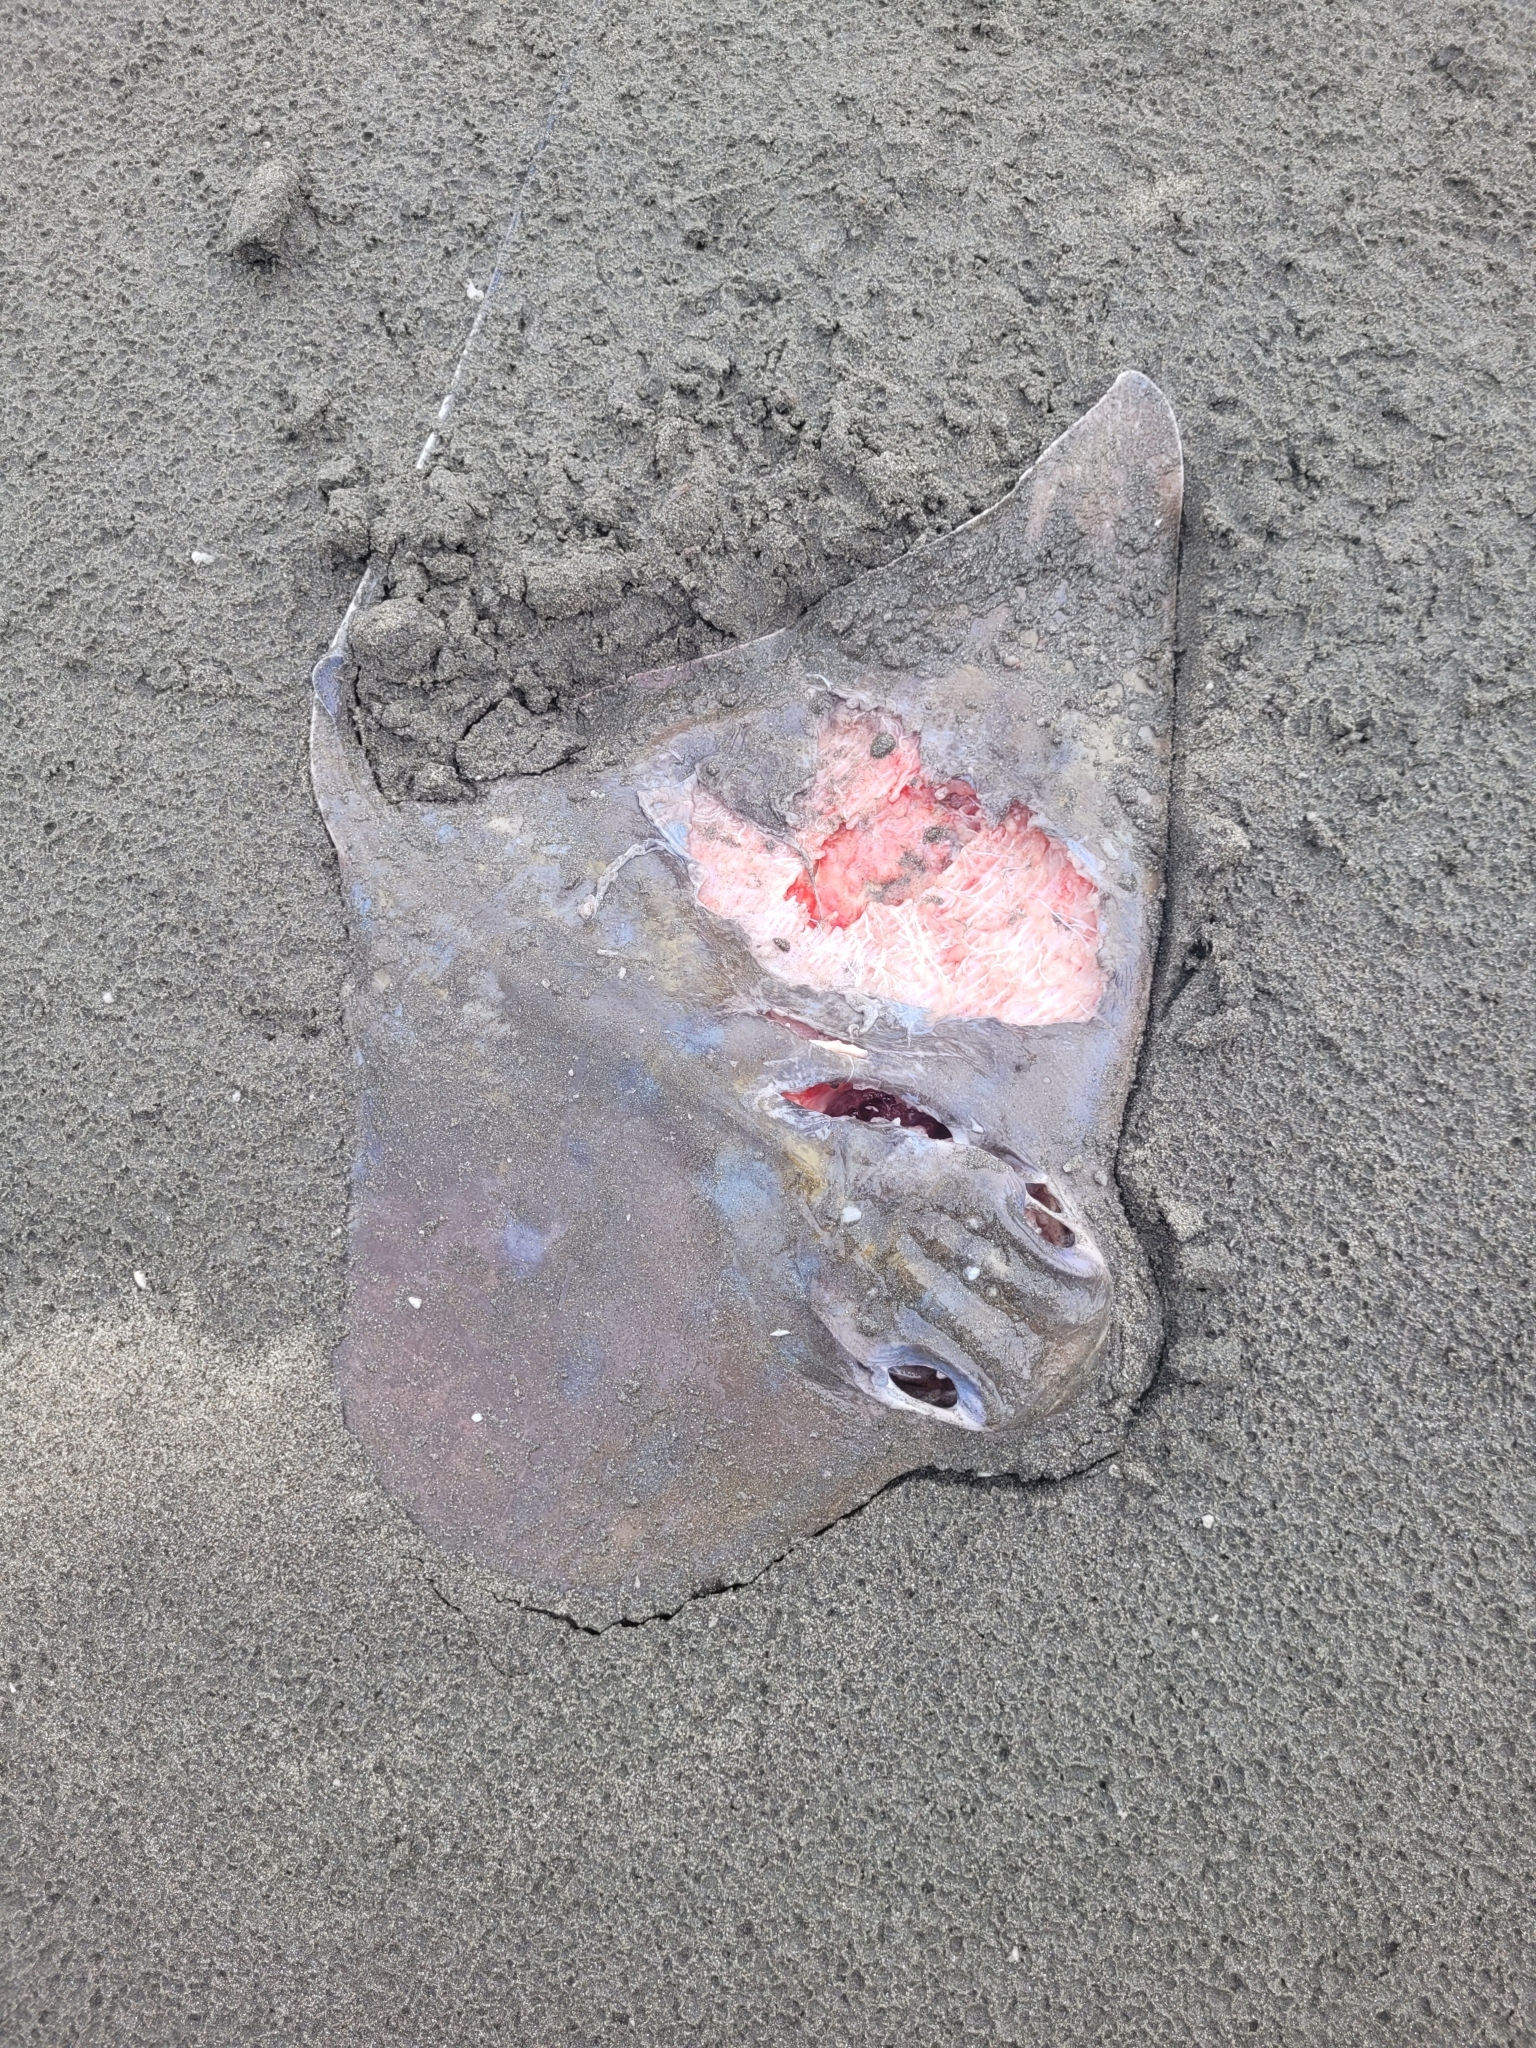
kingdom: Animalia
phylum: Chordata
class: Elasmobranchii
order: Myliobatiformes
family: Myliobatidae
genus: Myliobatis
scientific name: Myliobatis tenuicaudatus
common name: Eagle ray
